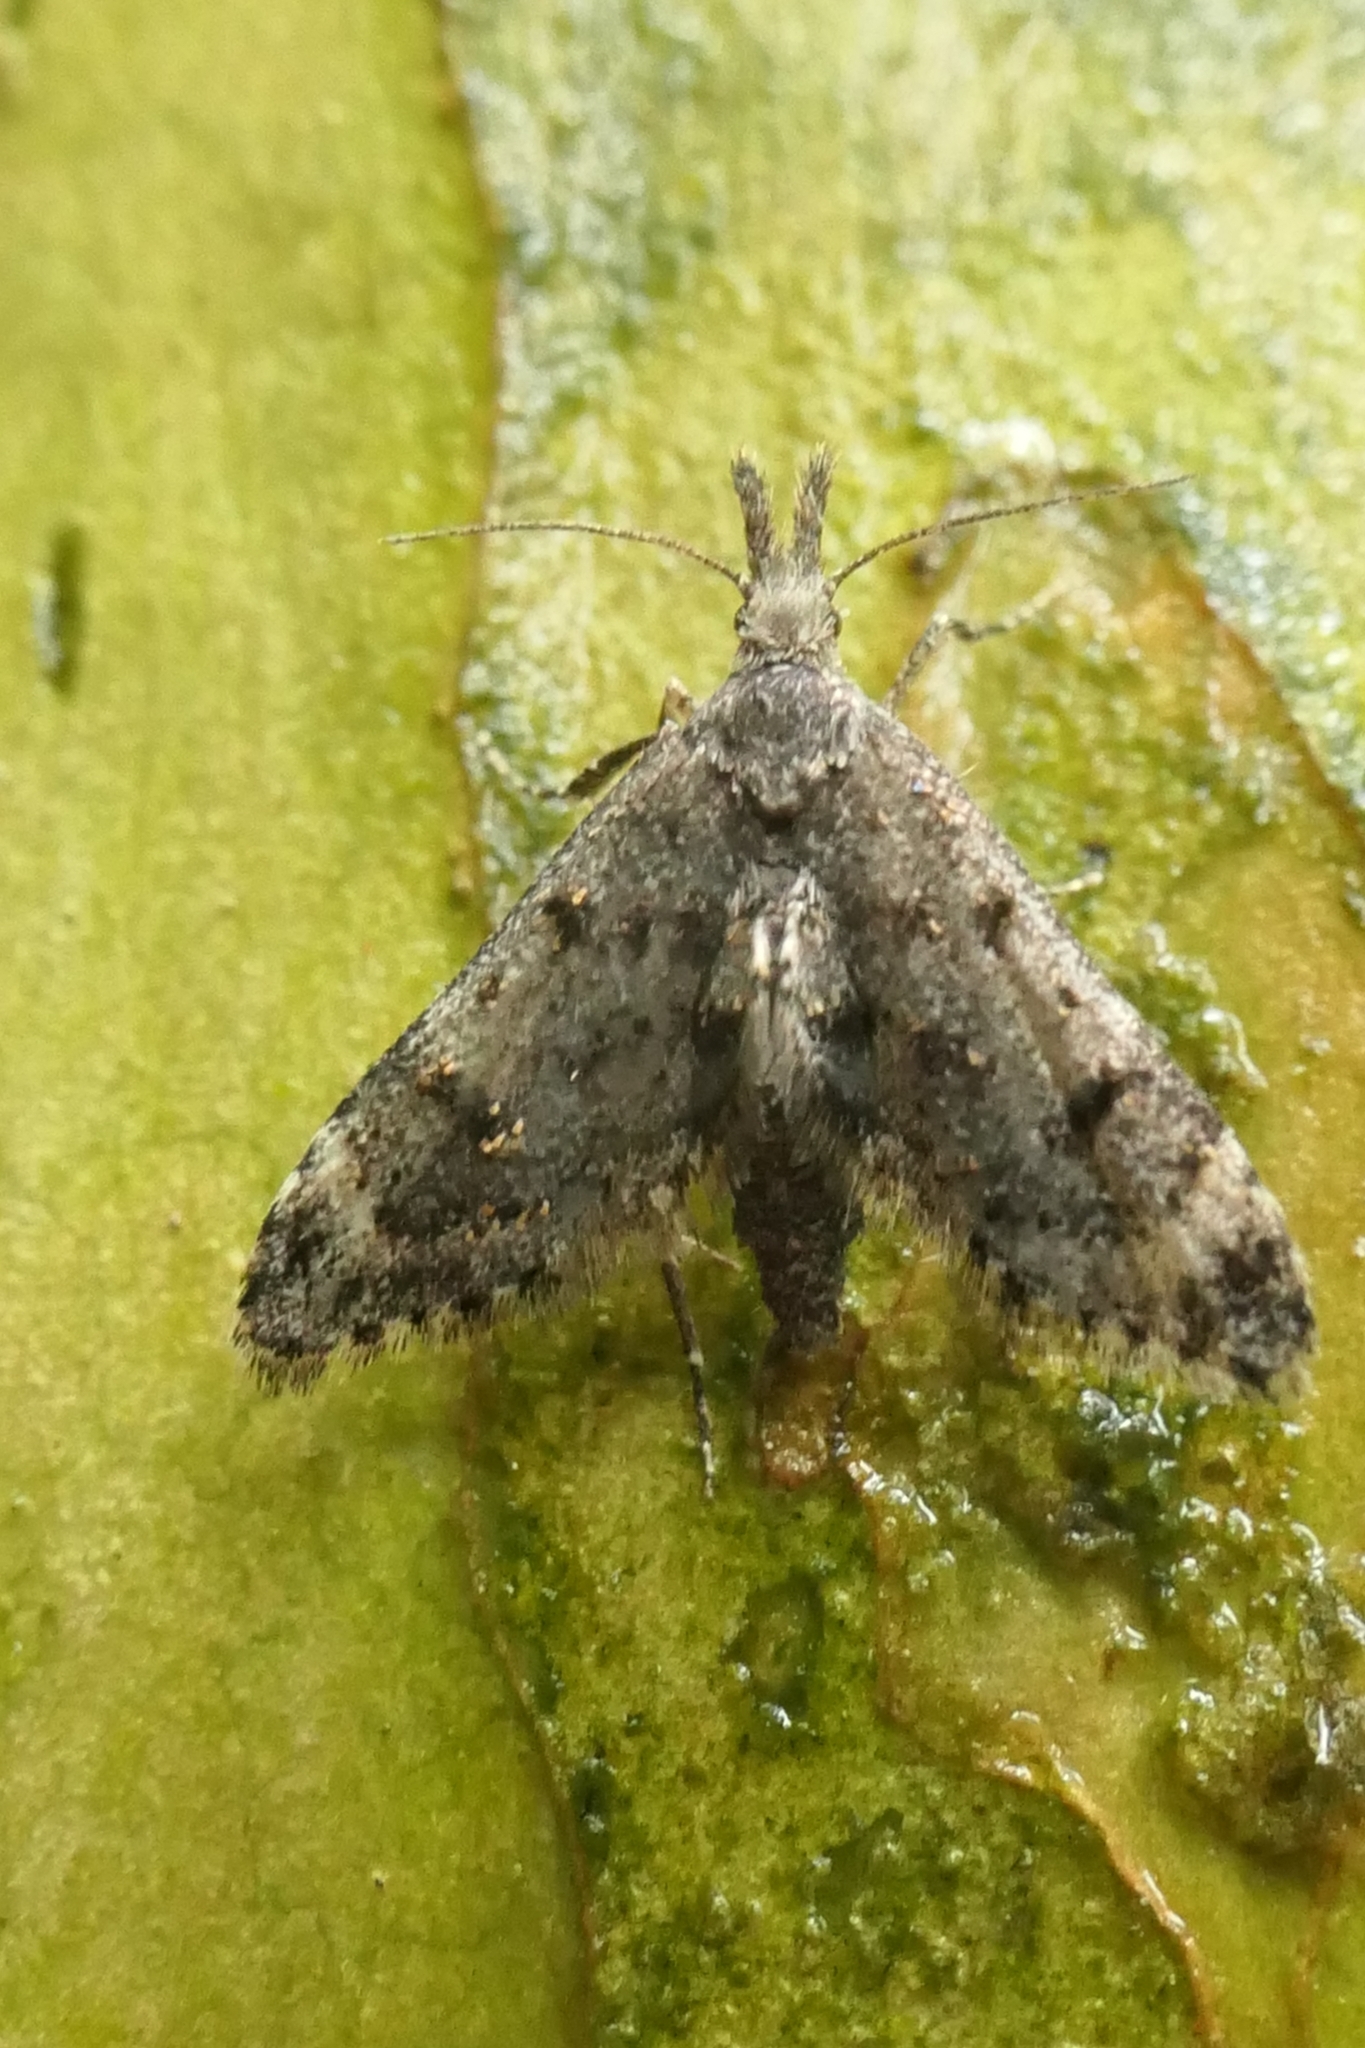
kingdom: Animalia
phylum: Arthropoda
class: Insecta
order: Lepidoptera
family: Copromorphidae
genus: Isonomeutis
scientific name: Isonomeutis amauropa
